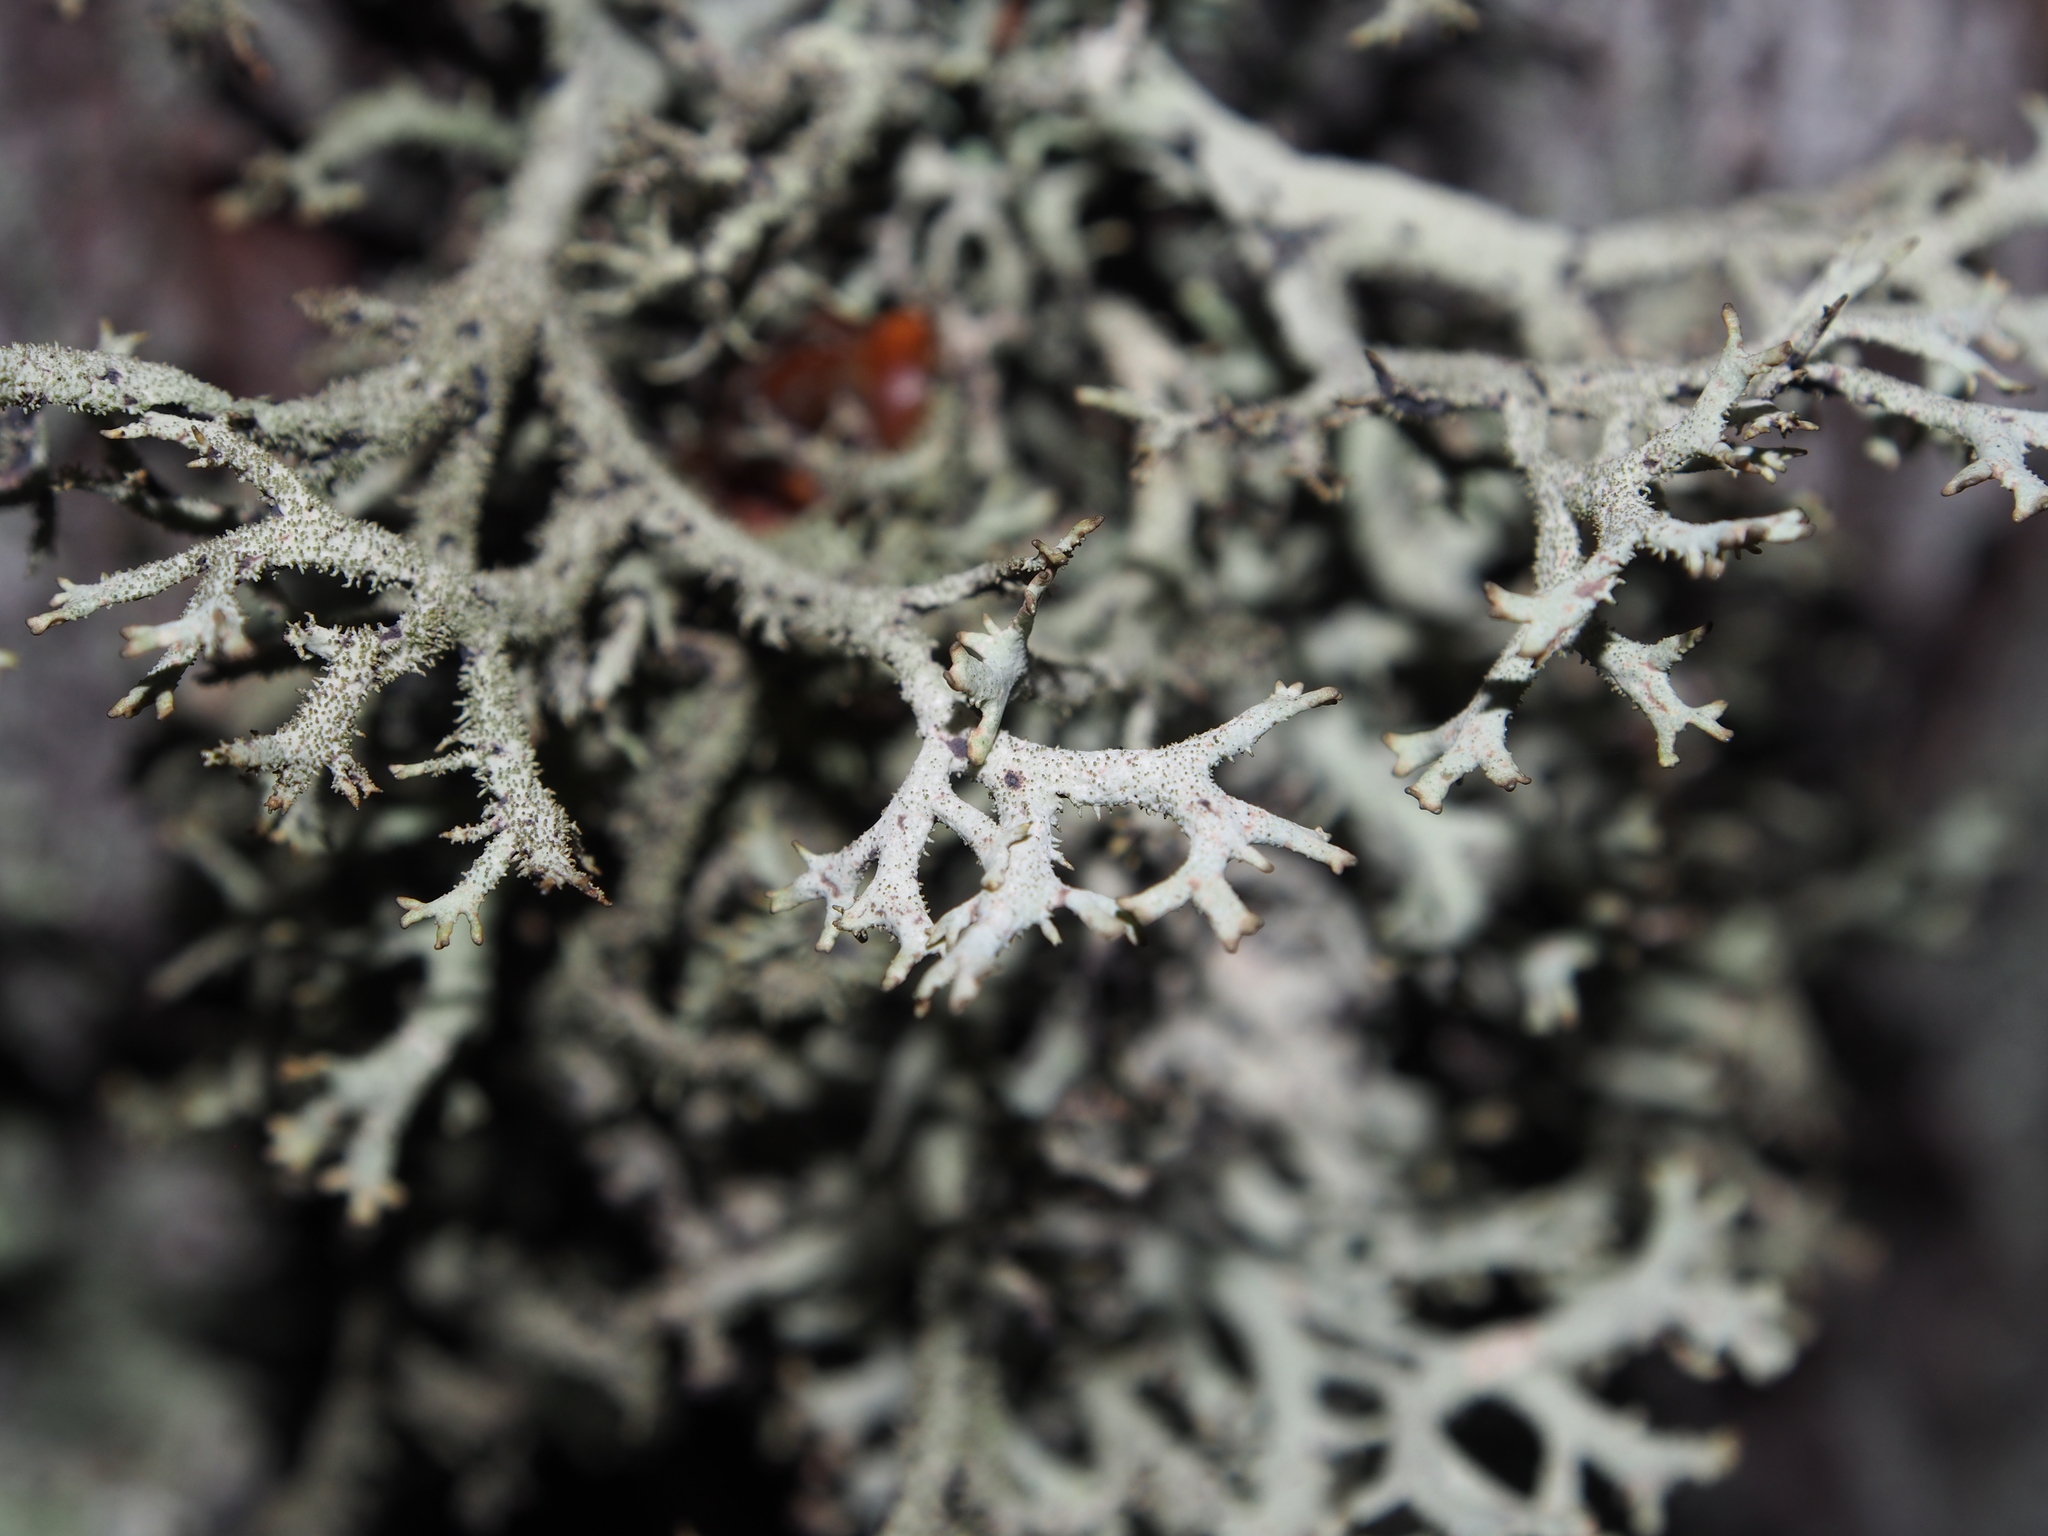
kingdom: Fungi
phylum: Ascomycota
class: Lecanoromycetes
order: Lecanorales
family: Parmeliaceae
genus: Pseudevernia
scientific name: Pseudevernia furfuracea
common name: Tree moss
